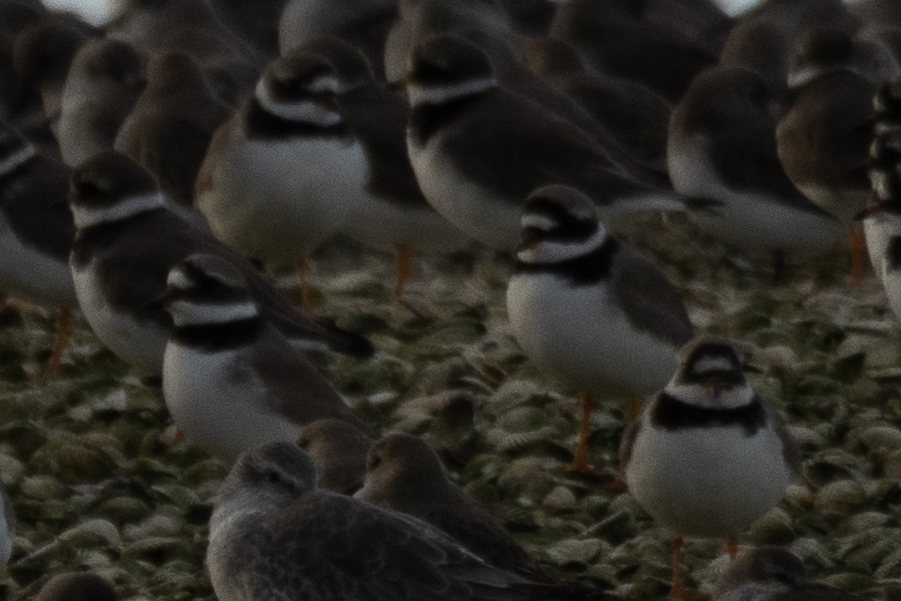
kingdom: Animalia
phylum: Chordata
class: Aves
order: Charadriiformes
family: Charadriidae
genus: Charadrius
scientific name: Charadrius hiaticula
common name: Common ringed plover
